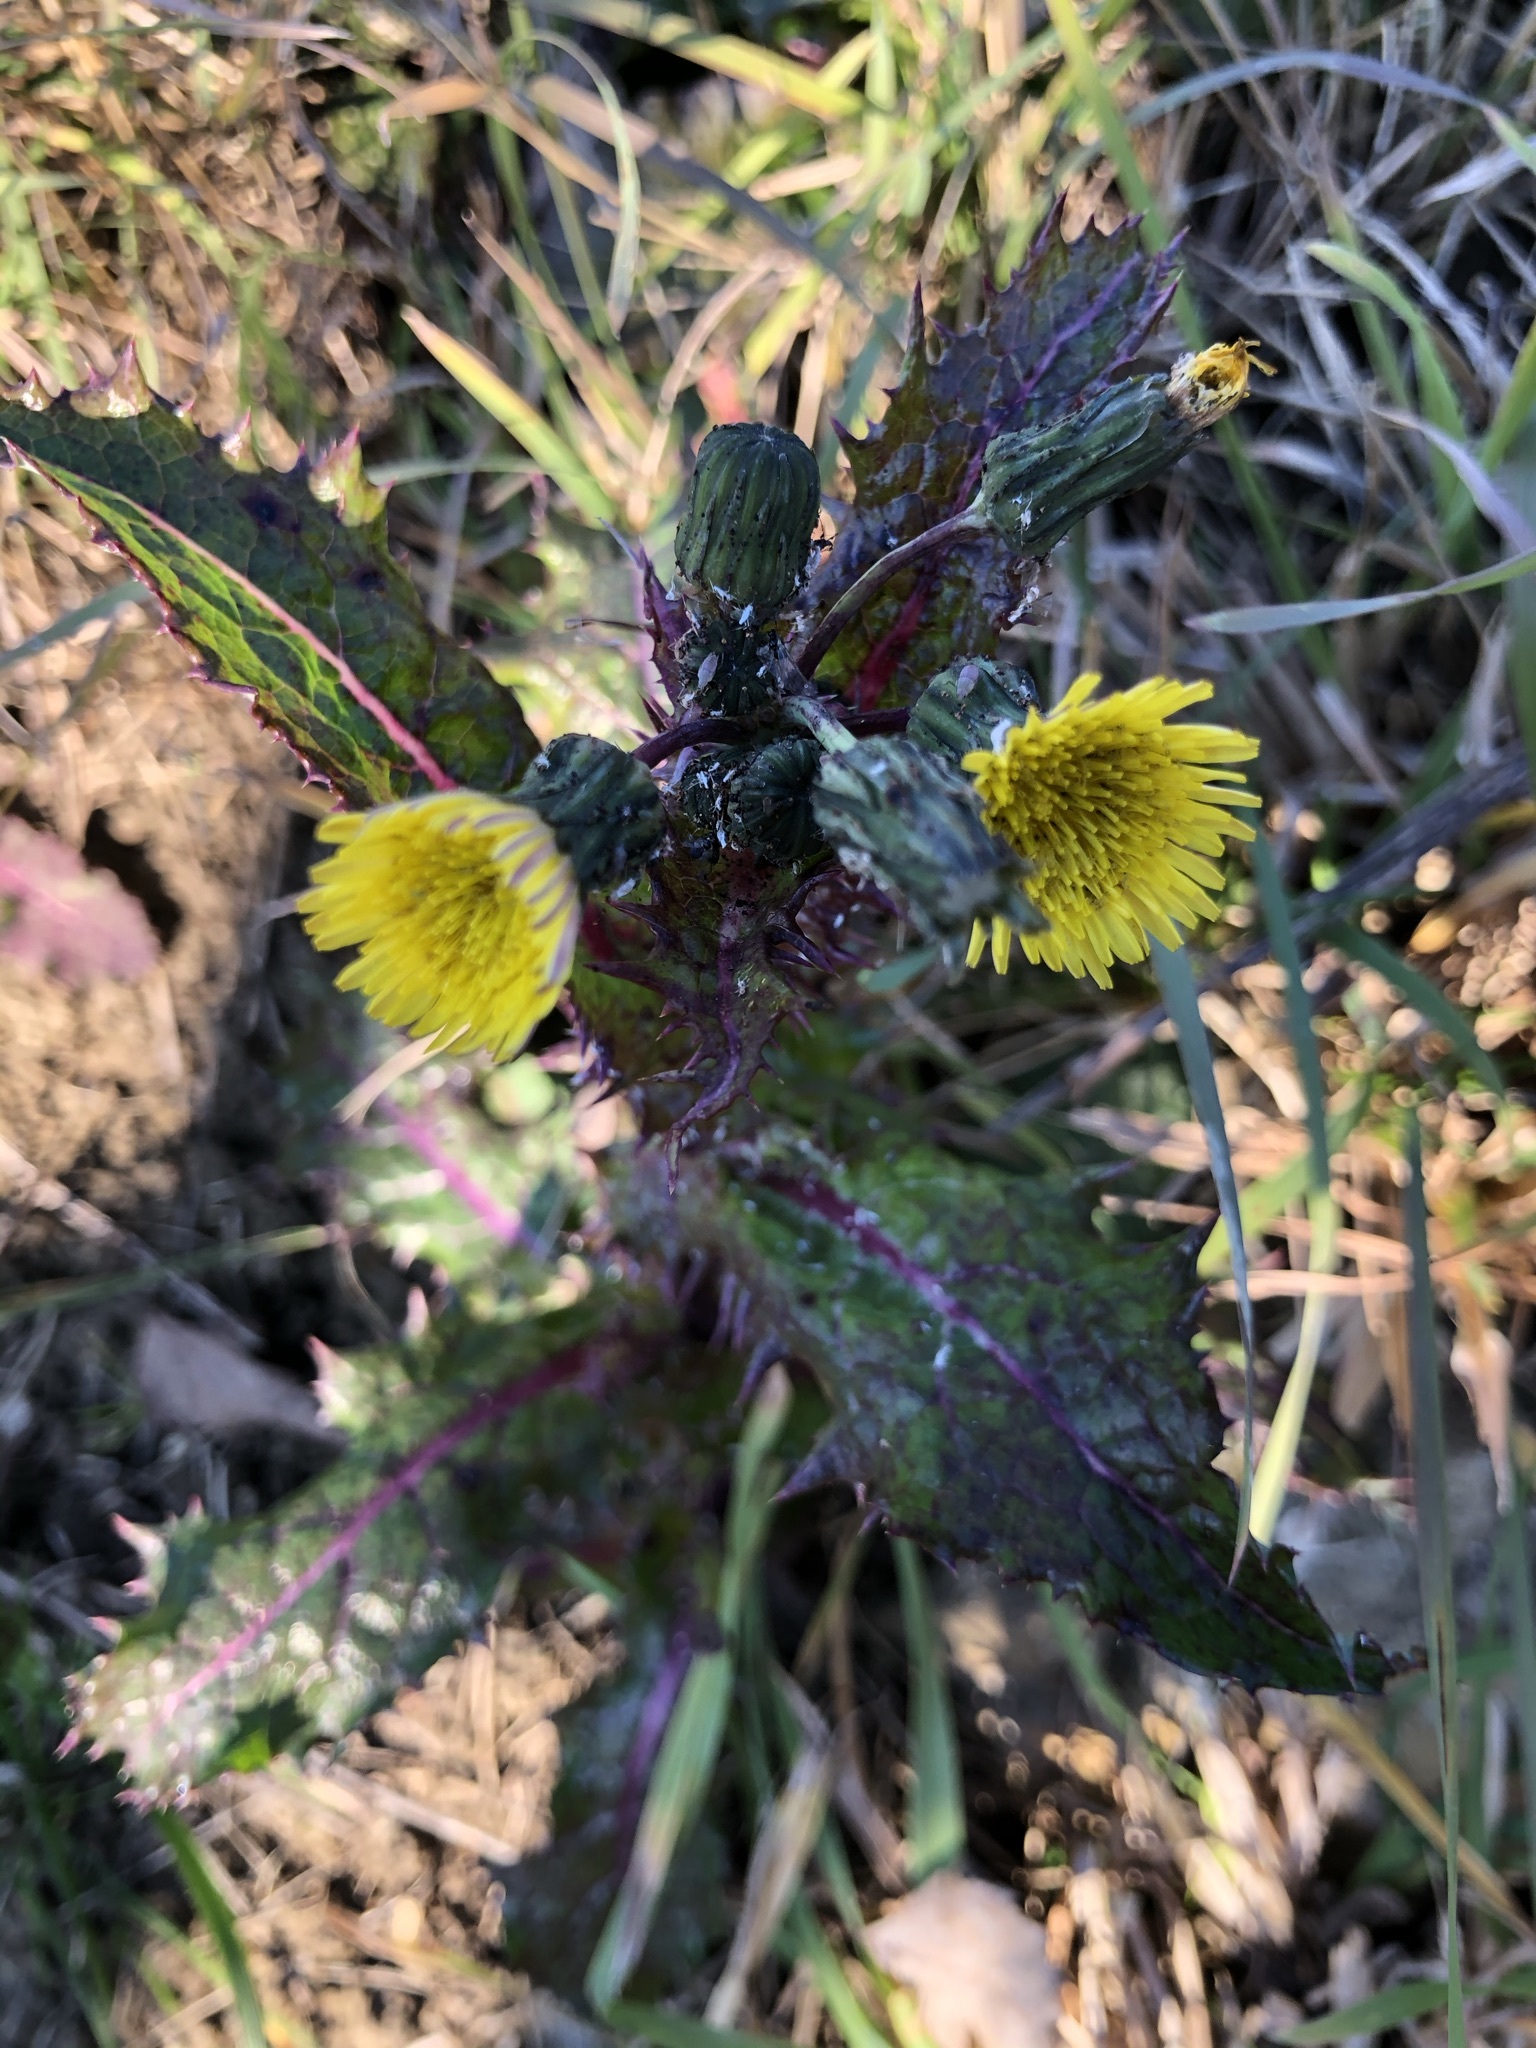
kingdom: Plantae
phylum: Tracheophyta
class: Magnoliopsida
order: Asterales
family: Asteraceae
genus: Sonchus
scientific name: Sonchus asper
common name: Prickly sow-thistle
